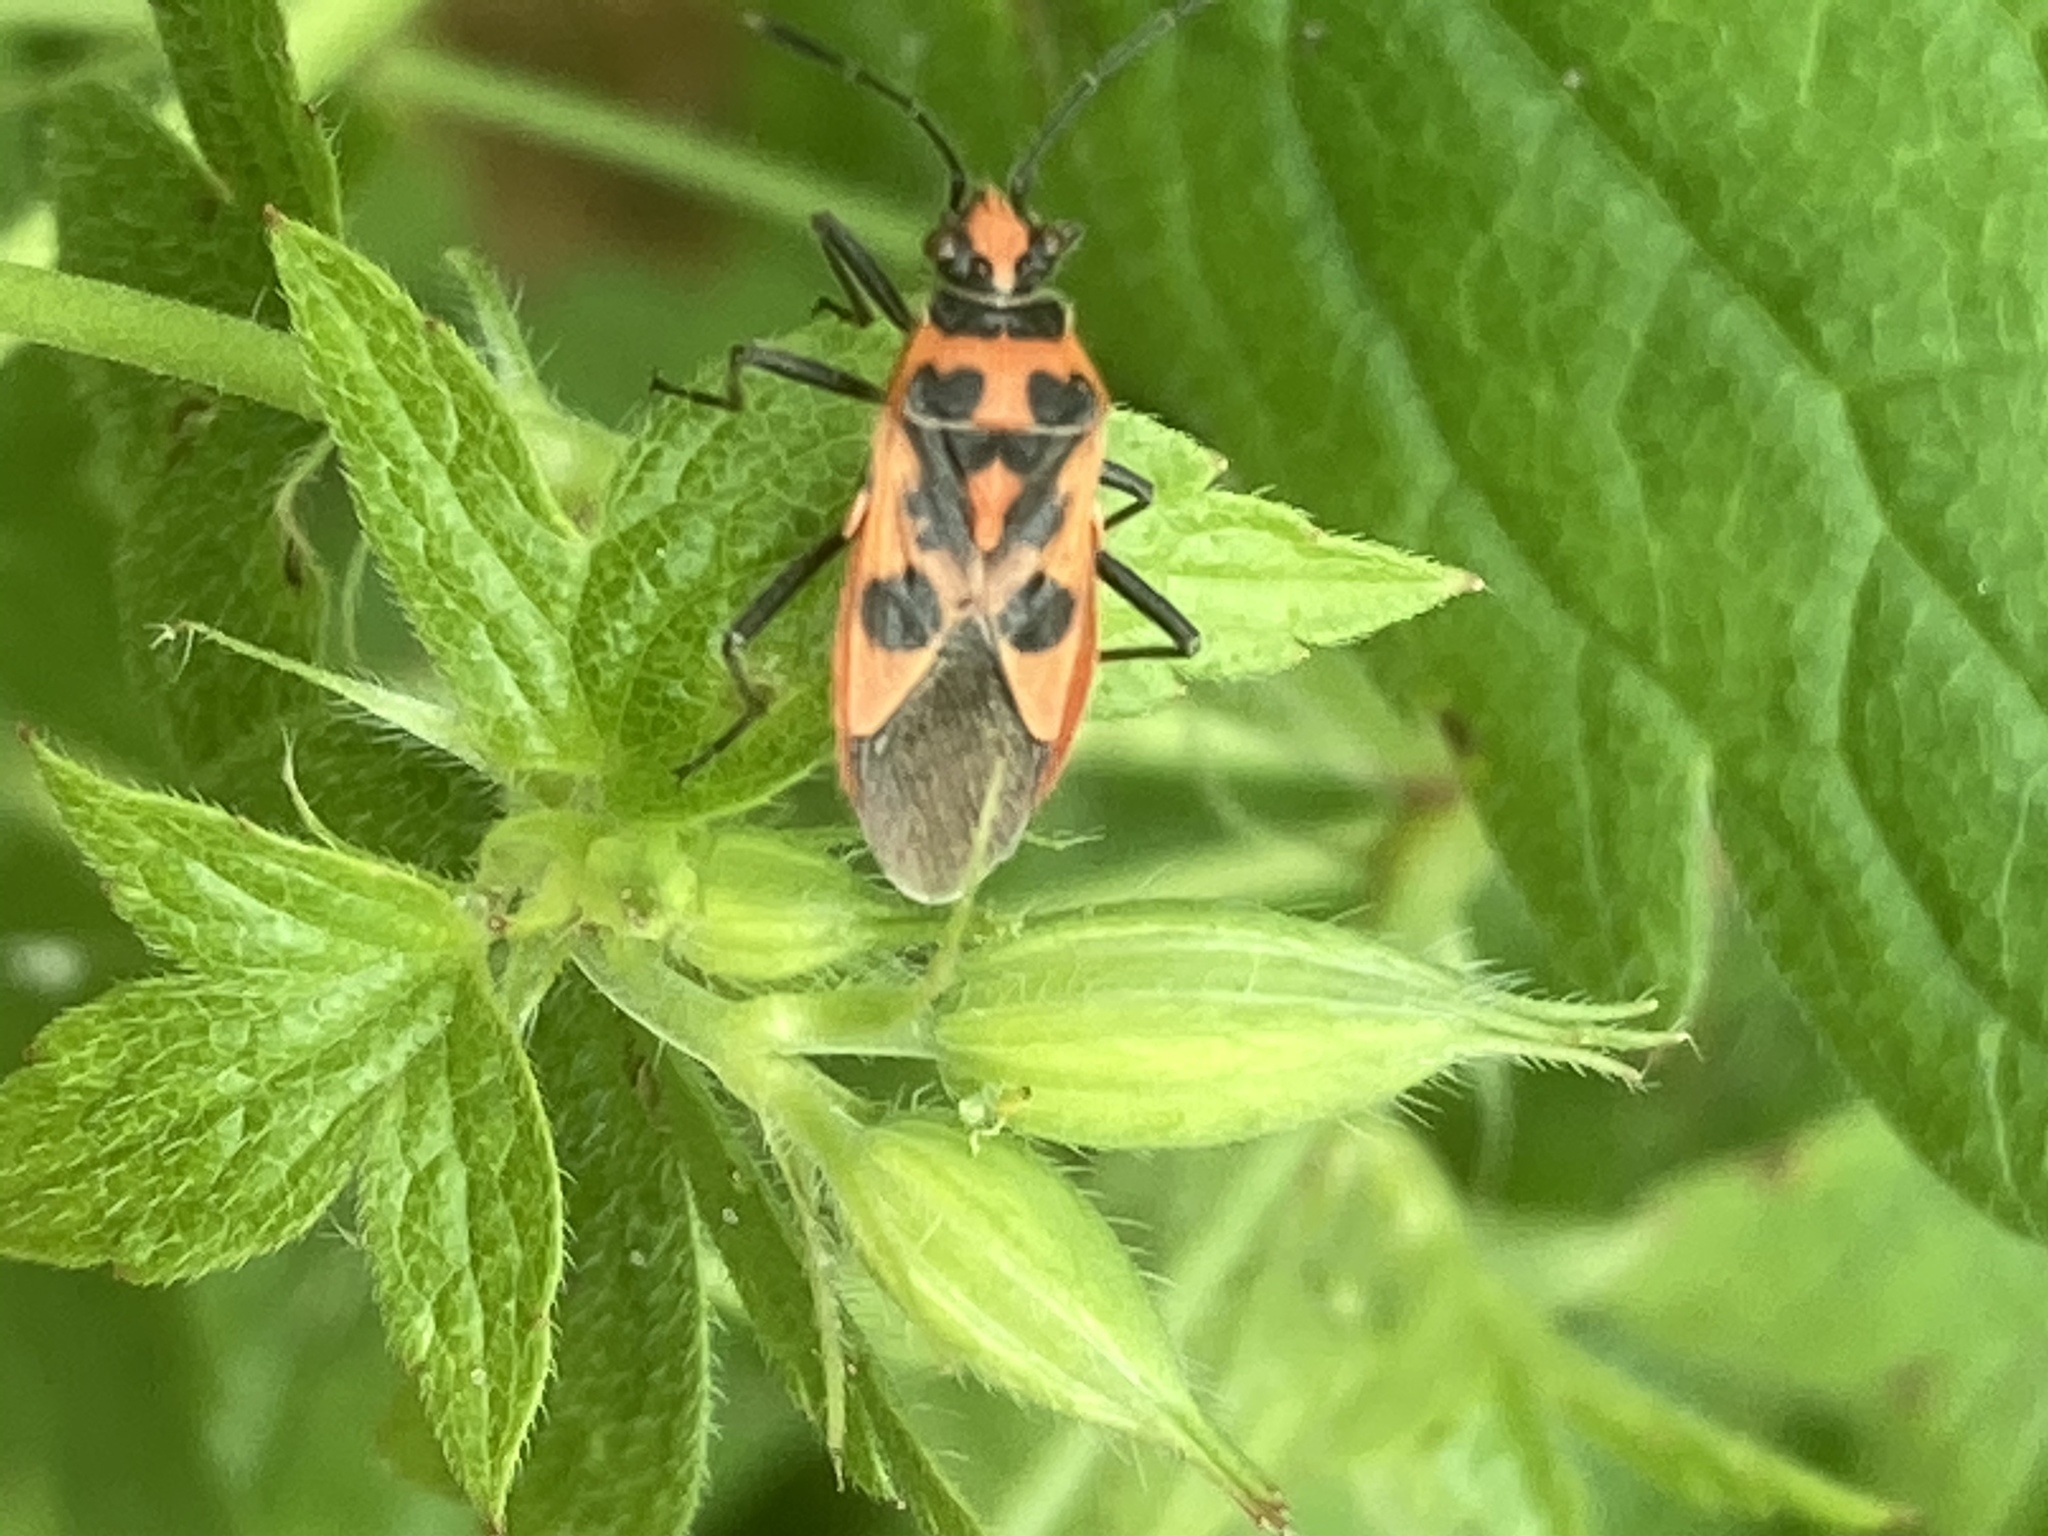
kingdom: Animalia
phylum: Arthropoda
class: Insecta
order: Hemiptera
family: Rhopalidae
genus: Corizus
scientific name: Corizus hyoscyami
